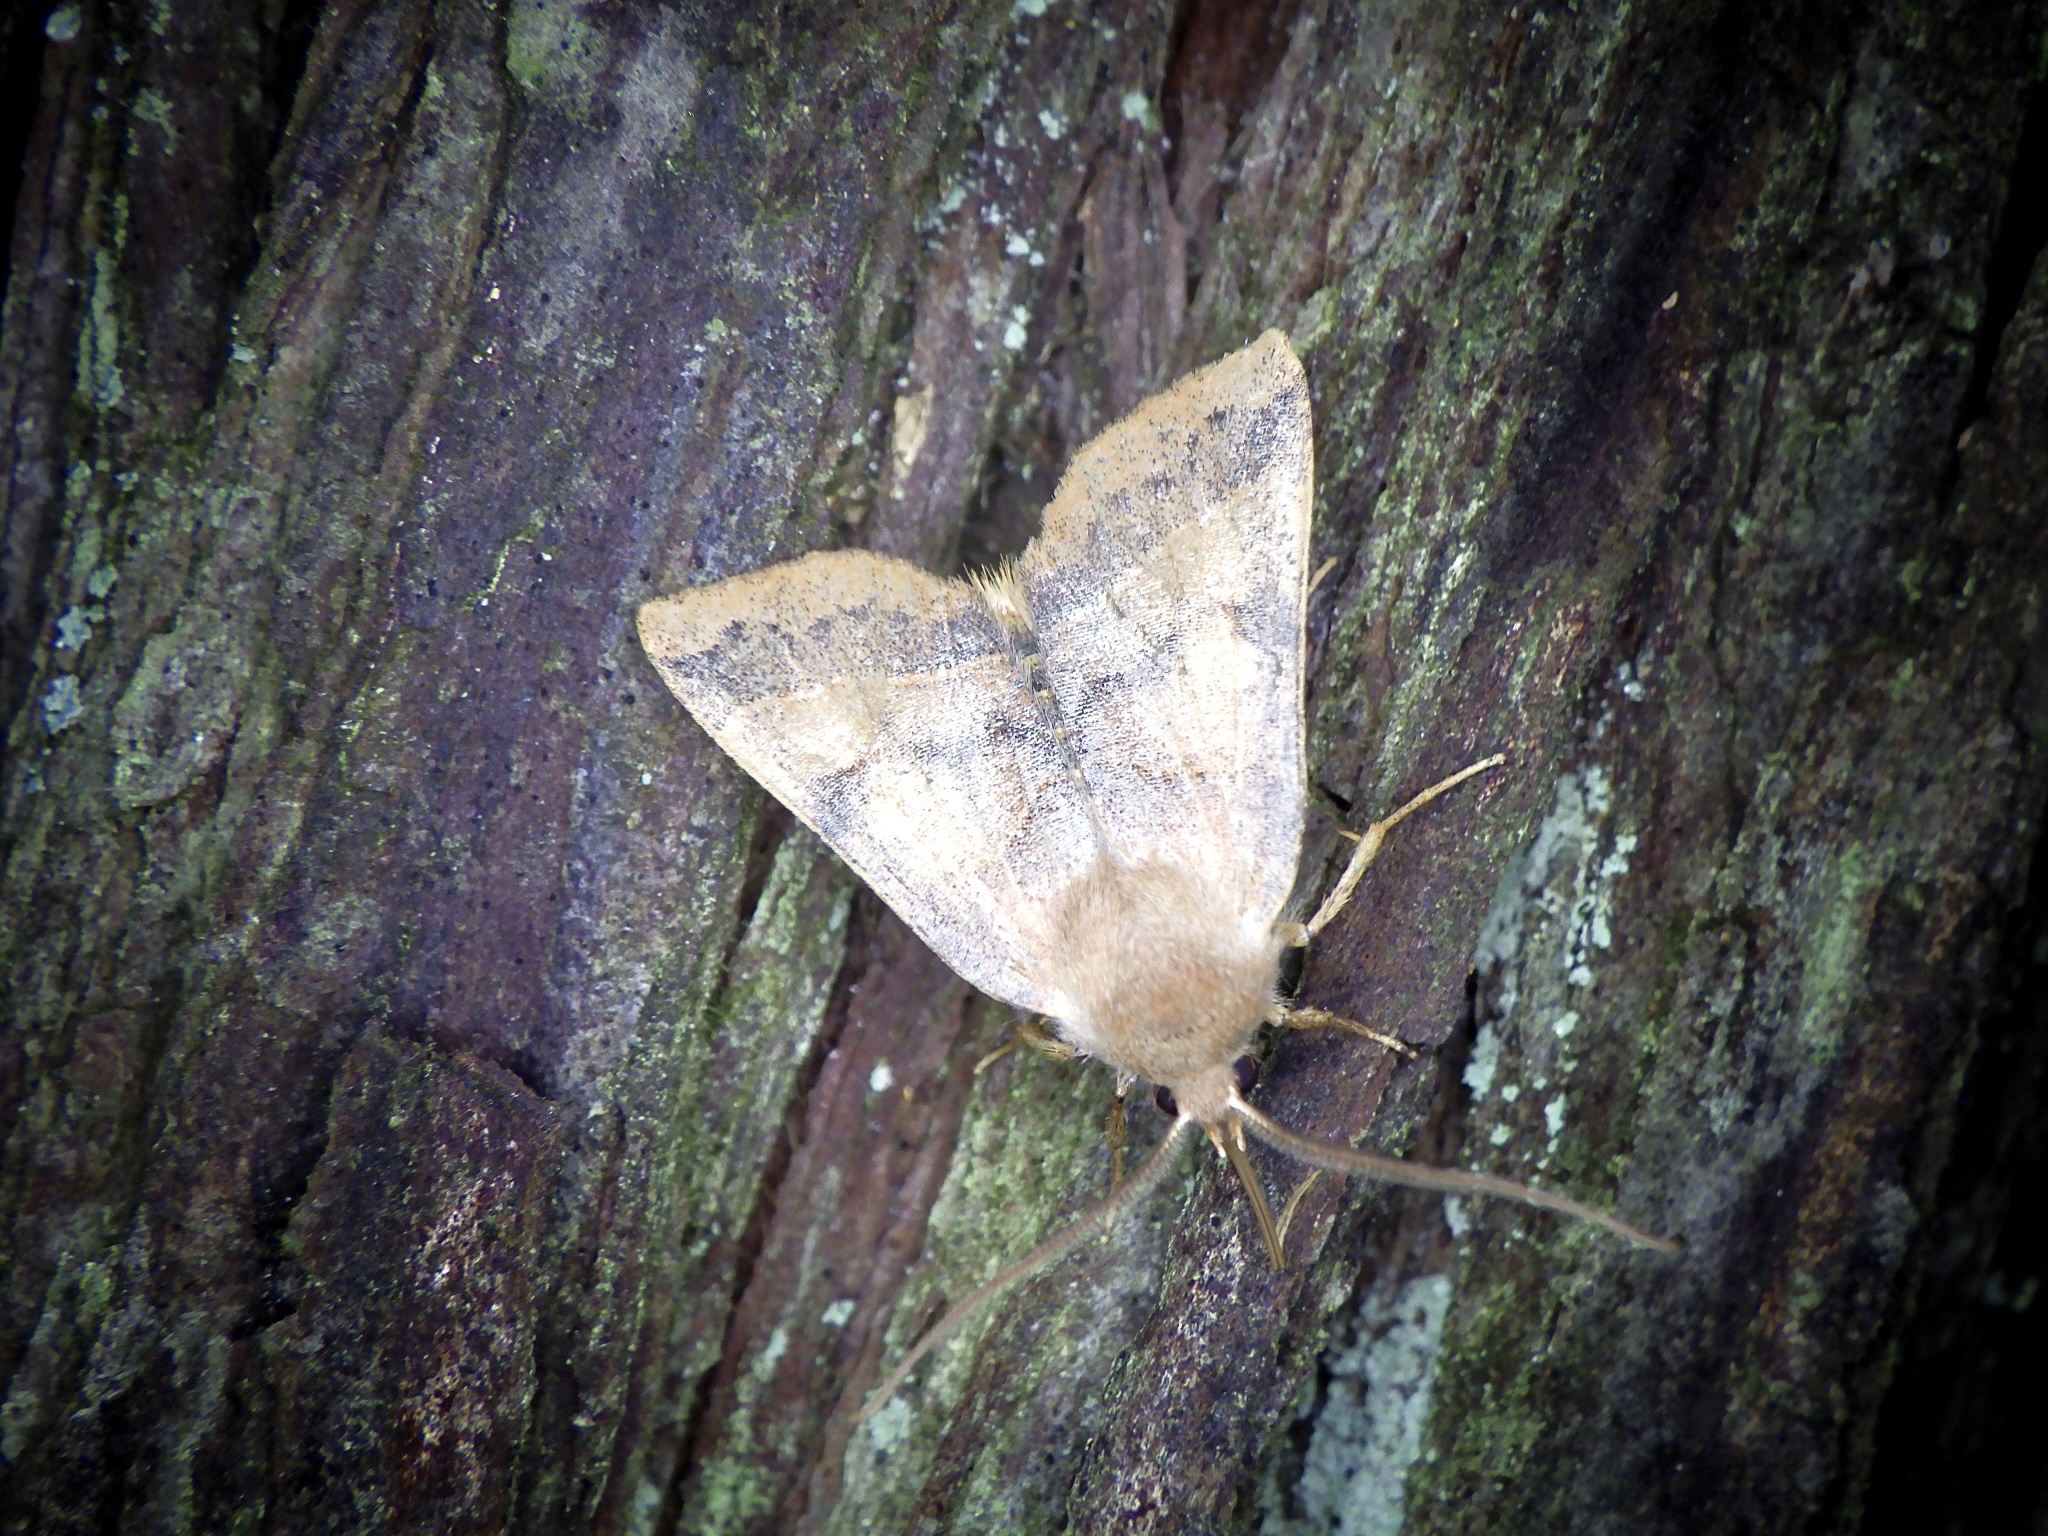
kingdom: Animalia
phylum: Arthropoda
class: Insecta
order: Lepidoptera
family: Noctuidae
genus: Telorta
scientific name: Telorta edentata
